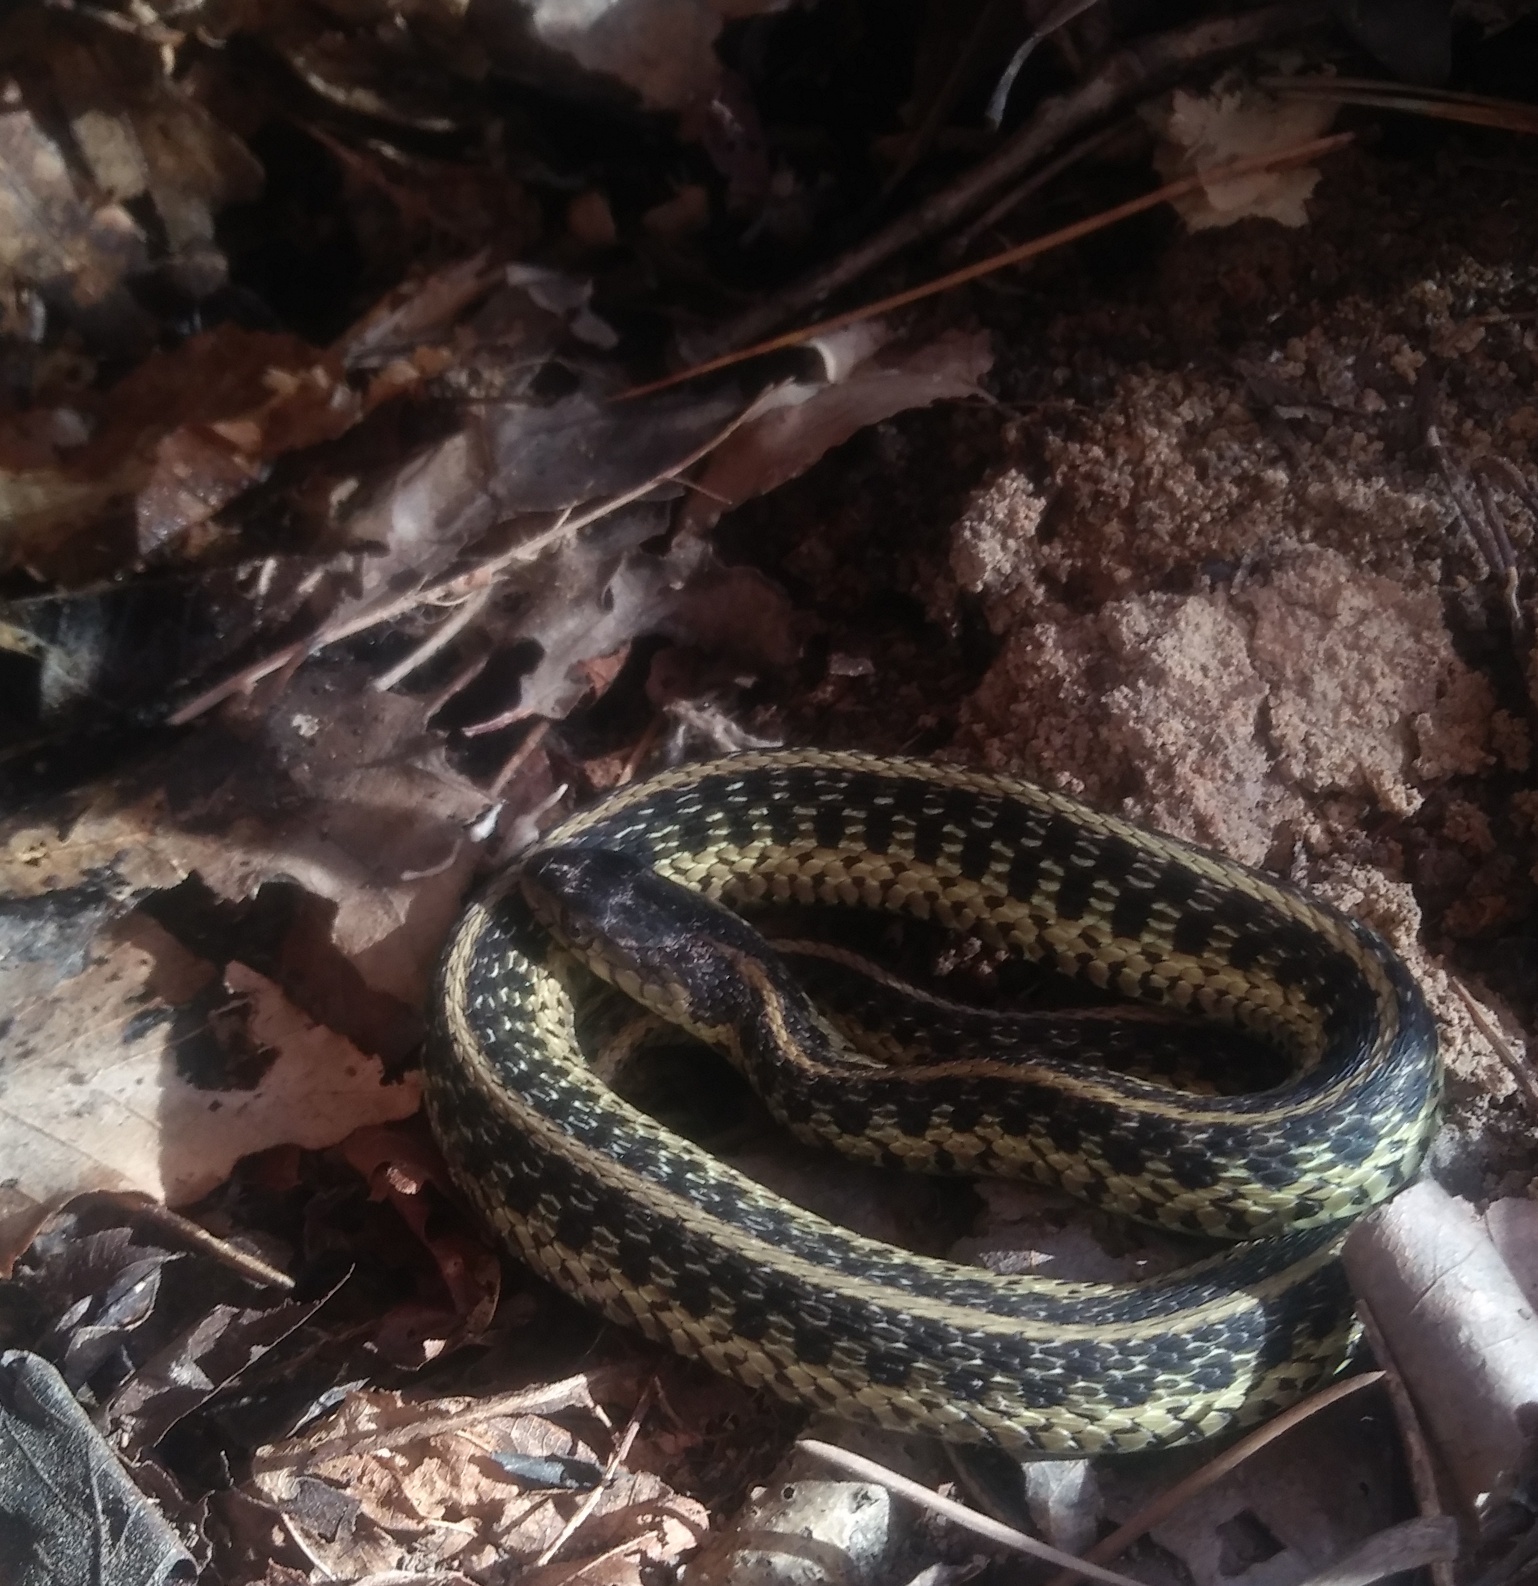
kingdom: Animalia
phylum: Chordata
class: Squamata
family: Colubridae
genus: Thamnophis
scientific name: Thamnophis sirtalis
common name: Common garter snake
